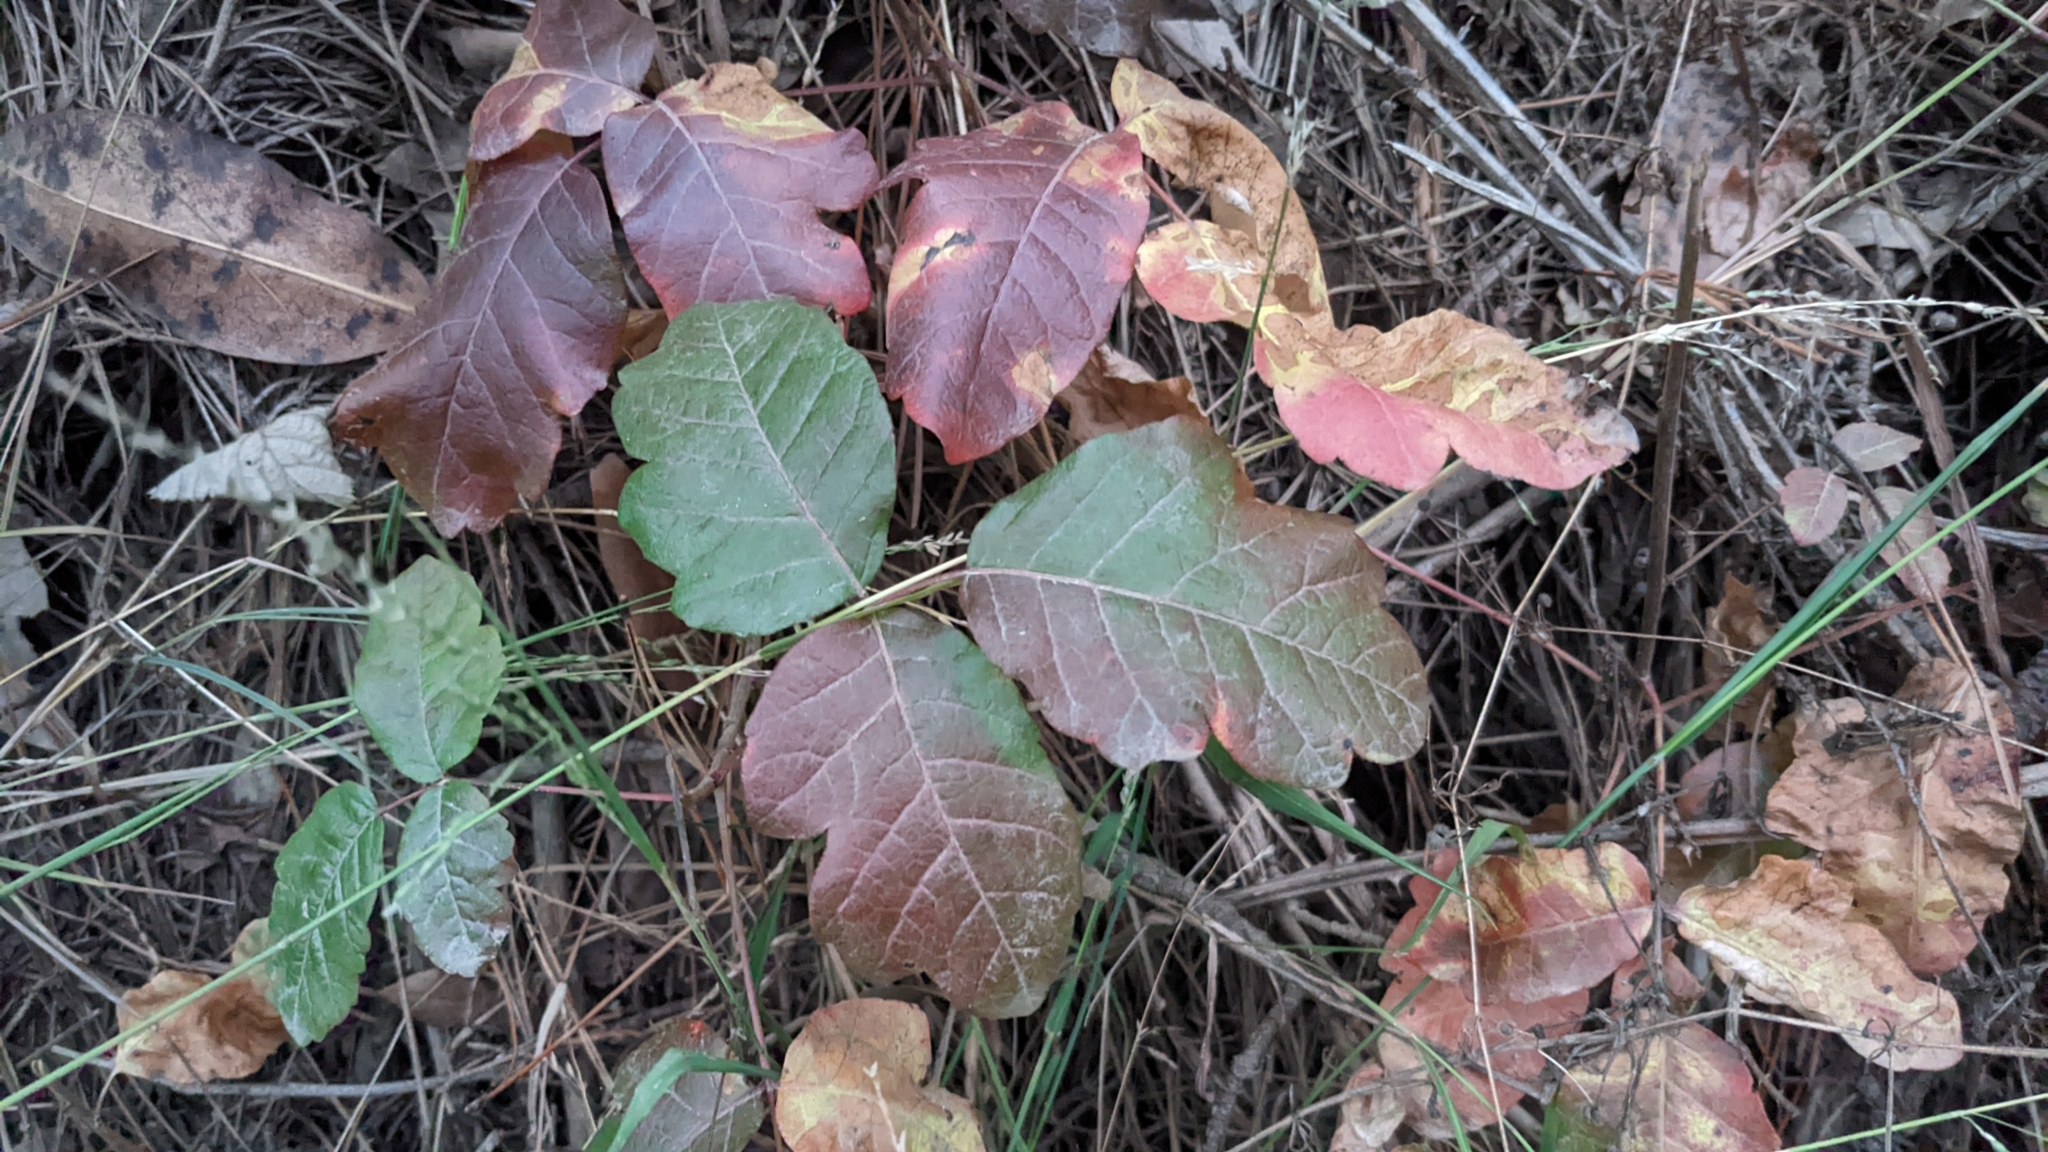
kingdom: Plantae
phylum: Tracheophyta
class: Magnoliopsida
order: Sapindales
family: Anacardiaceae
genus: Toxicodendron
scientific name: Toxicodendron diversilobum
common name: Pacific poison-oak
